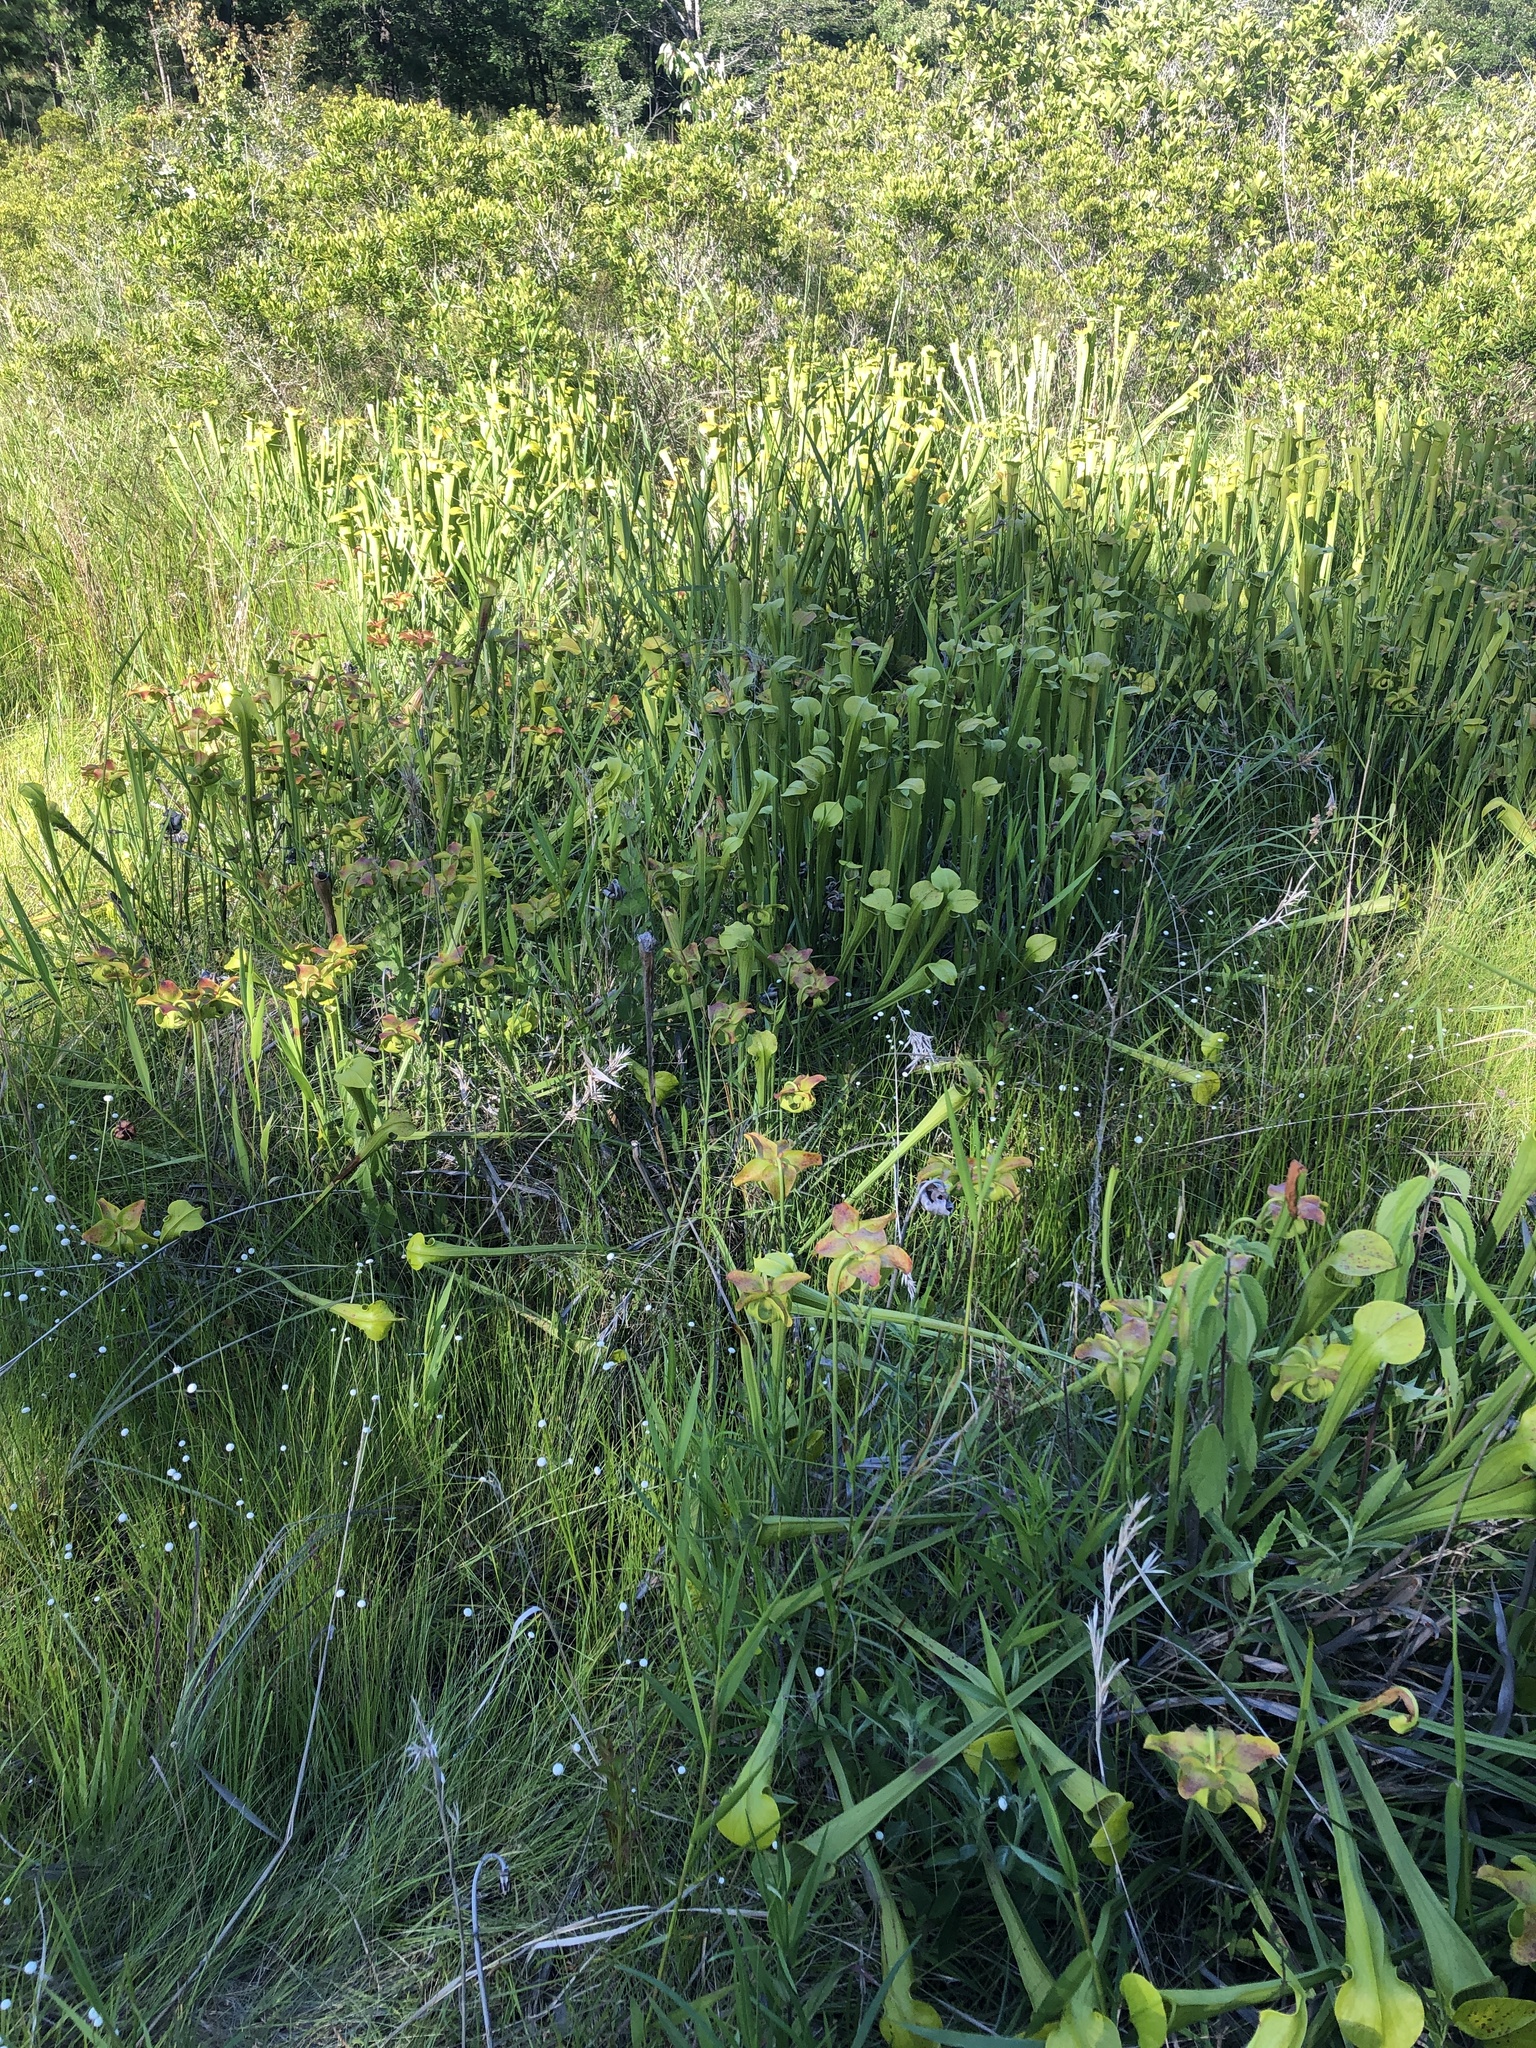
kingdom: Plantae
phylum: Tracheophyta
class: Magnoliopsida
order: Ericales
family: Sarraceniaceae
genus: Sarracenia
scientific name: Sarracenia alata
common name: Yellow trumpets
